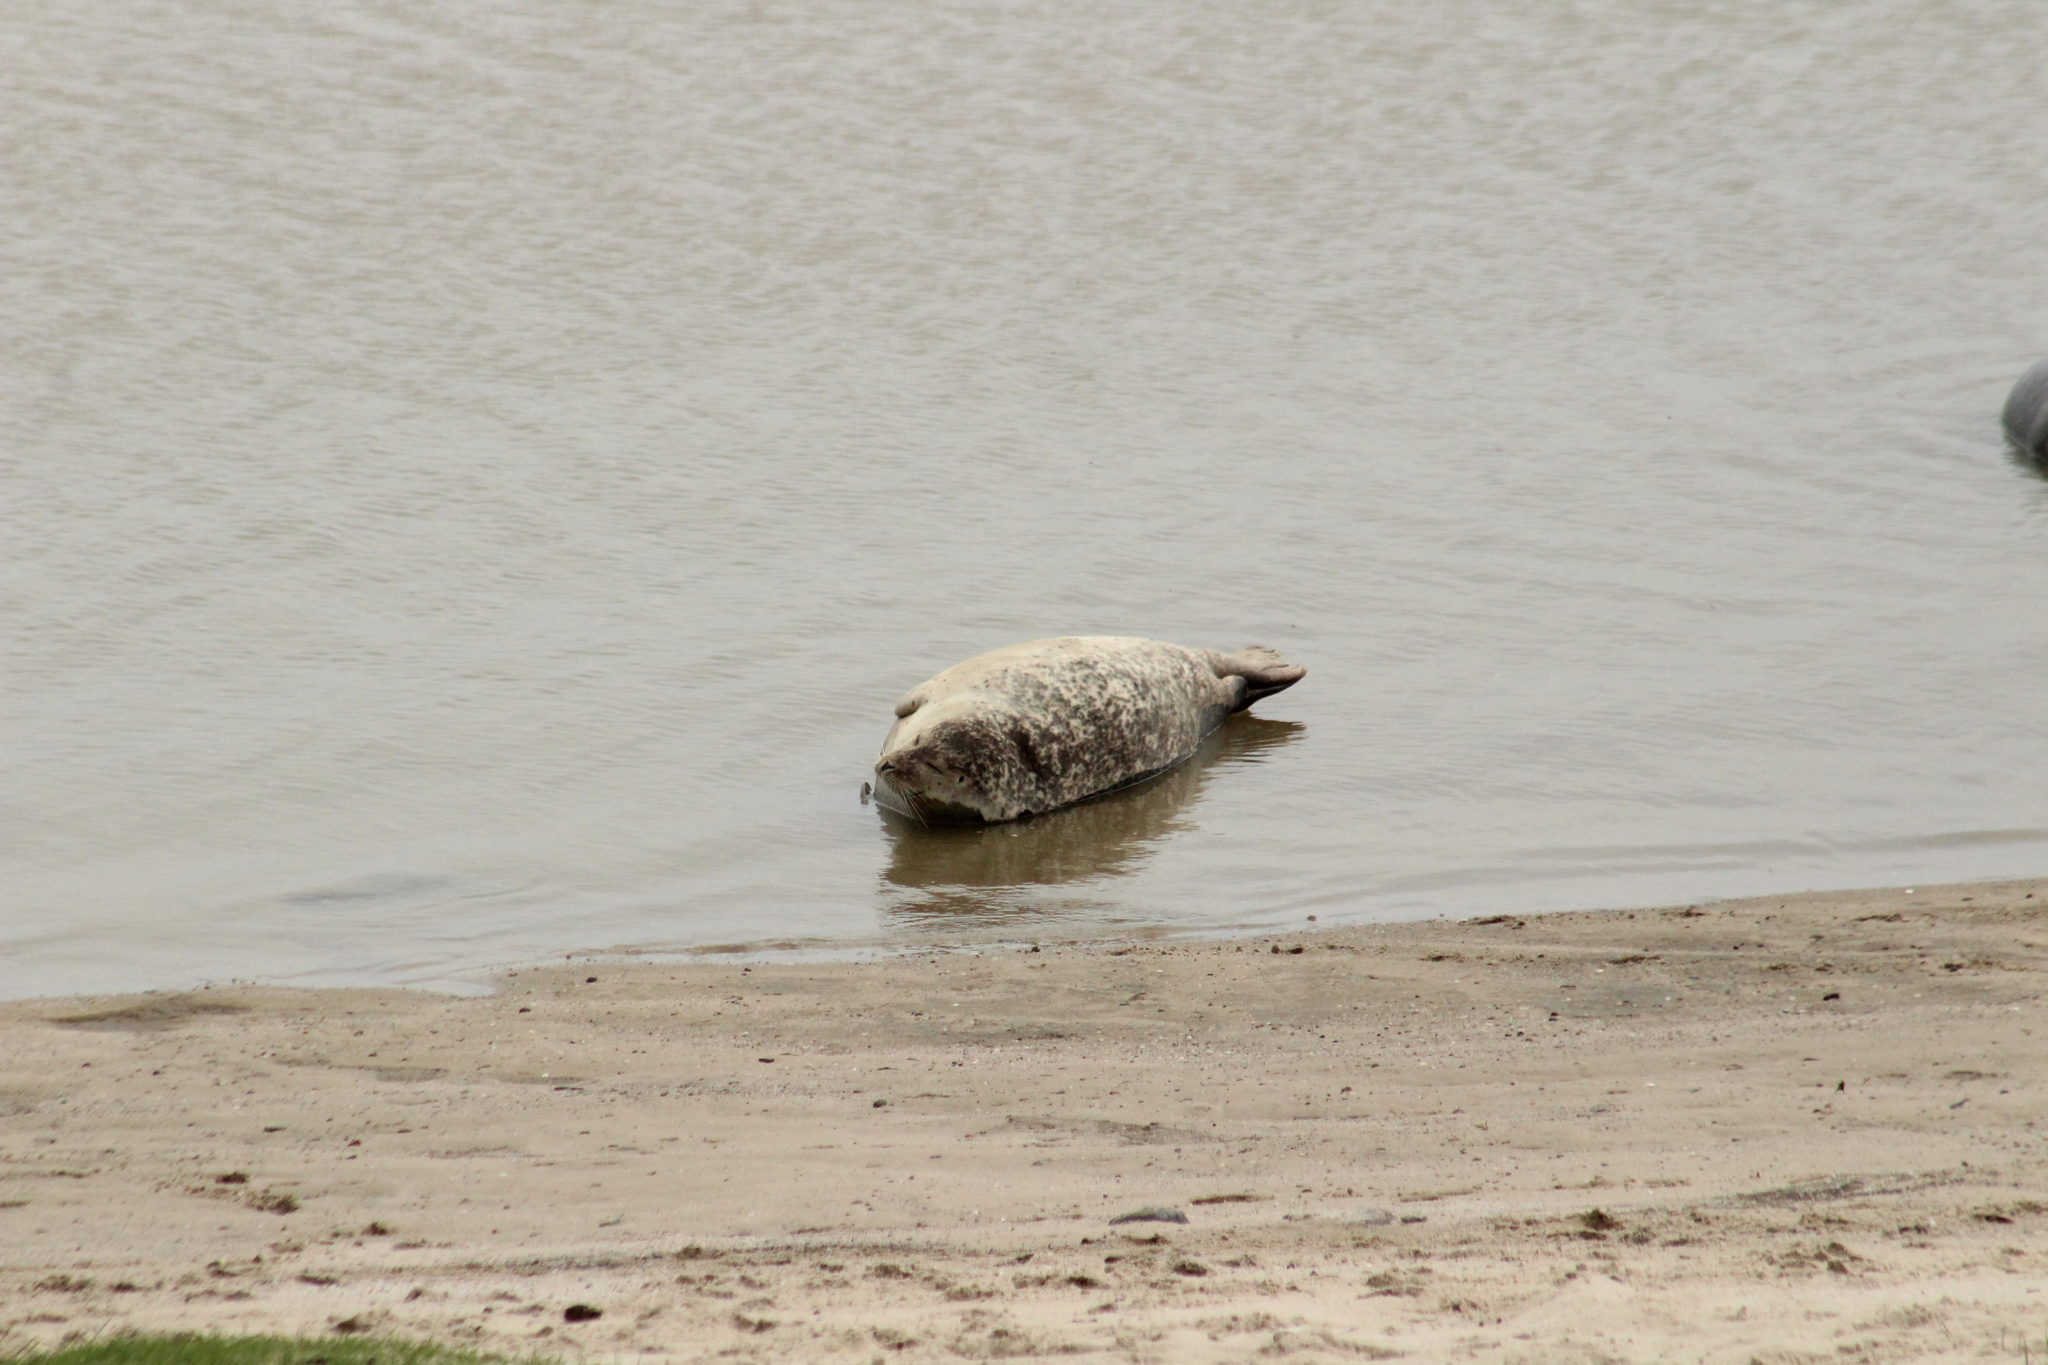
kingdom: Animalia
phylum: Chordata
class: Mammalia
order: Carnivora
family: Phocidae
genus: Phoca
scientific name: Phoca vitulina
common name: Harbor seal
